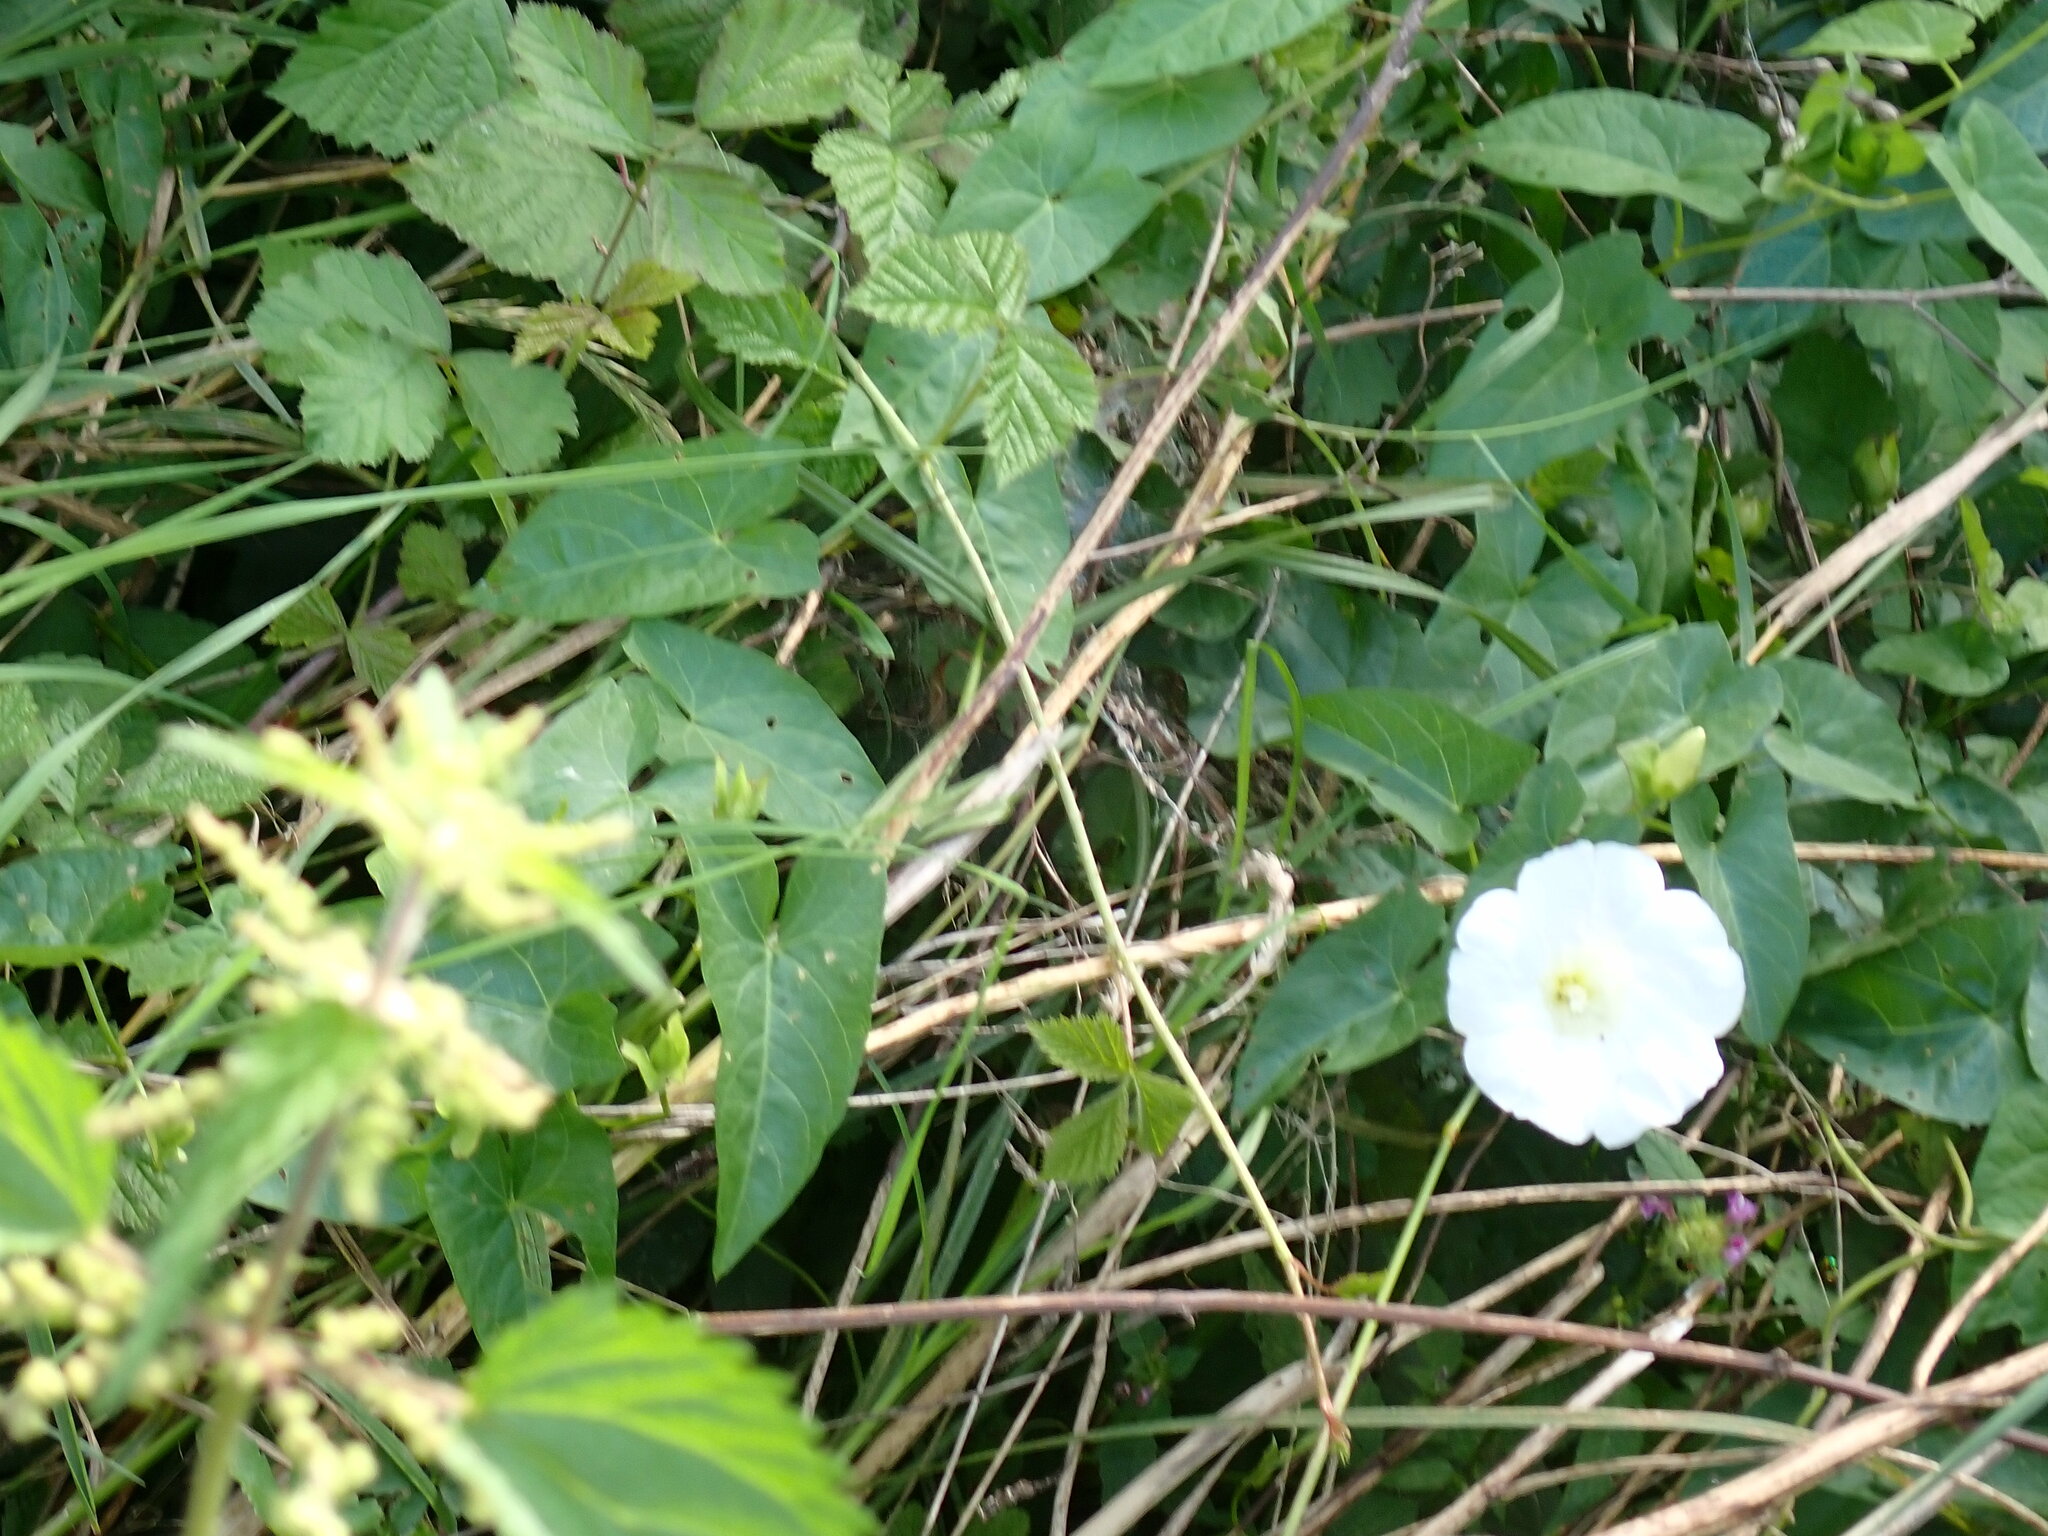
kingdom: Plantae
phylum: Tracheophyta
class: Magnoliopsida
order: Solanales
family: Convolvulaceae
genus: Calystegia
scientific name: Calystegia sepium
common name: Hedge bindweed
